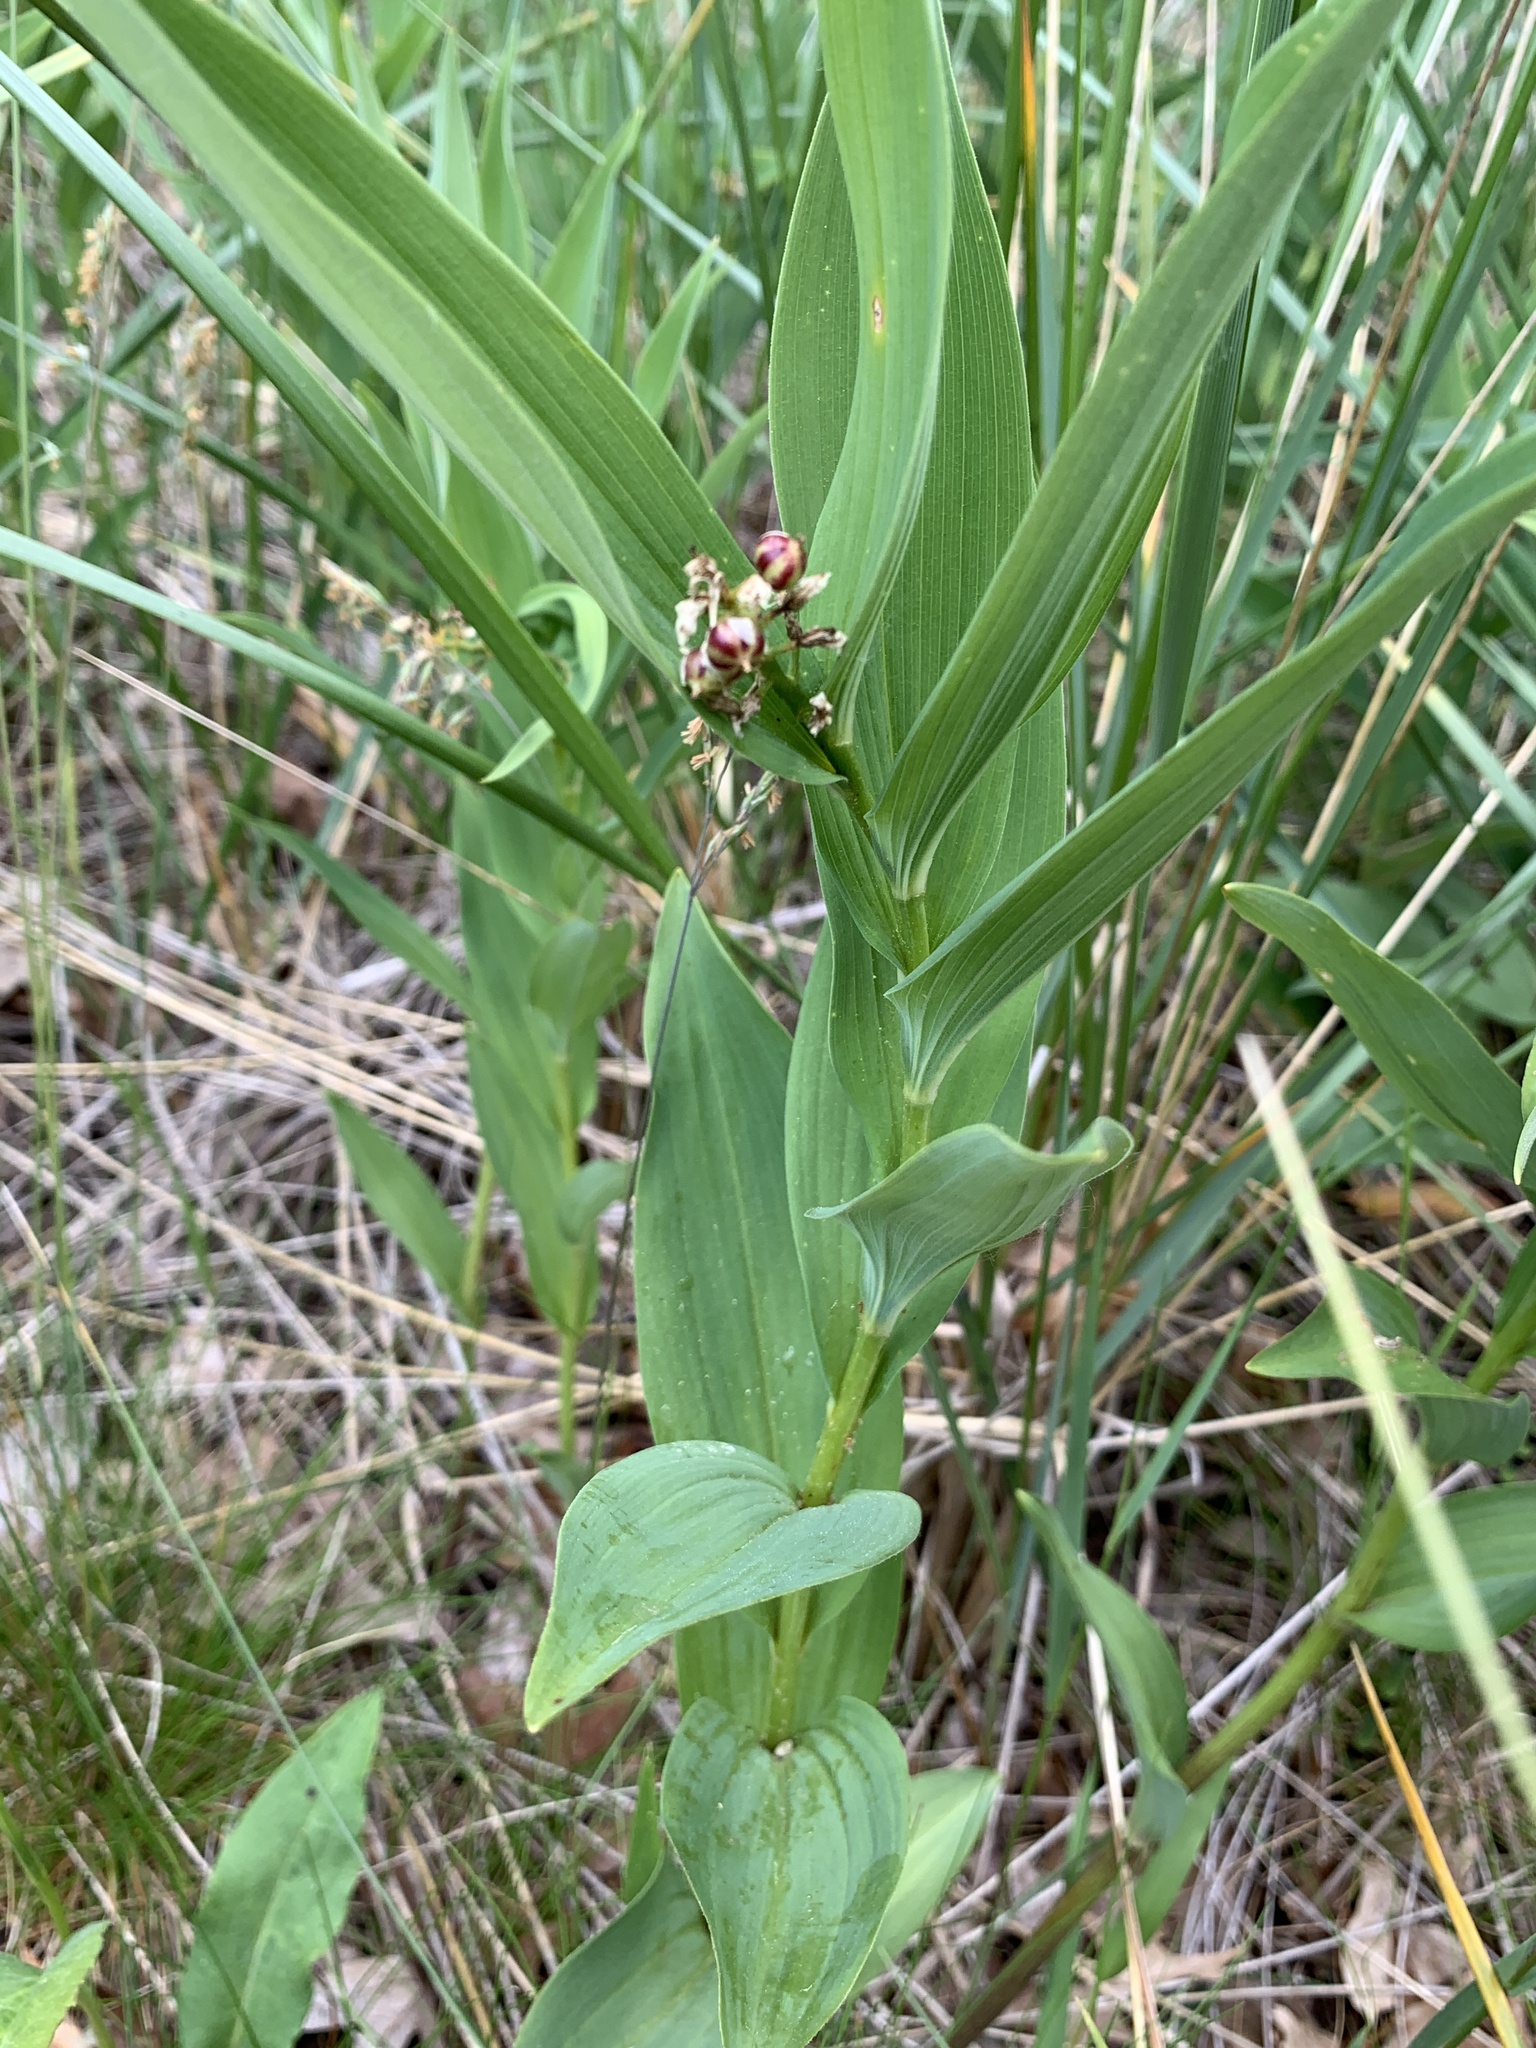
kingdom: Plantae
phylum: Tracheophyta
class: Liliopsida
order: Asparagales
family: Asparagaceae
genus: Maianthemum
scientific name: Maianthemum stellatum
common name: Little false solomon's seal
